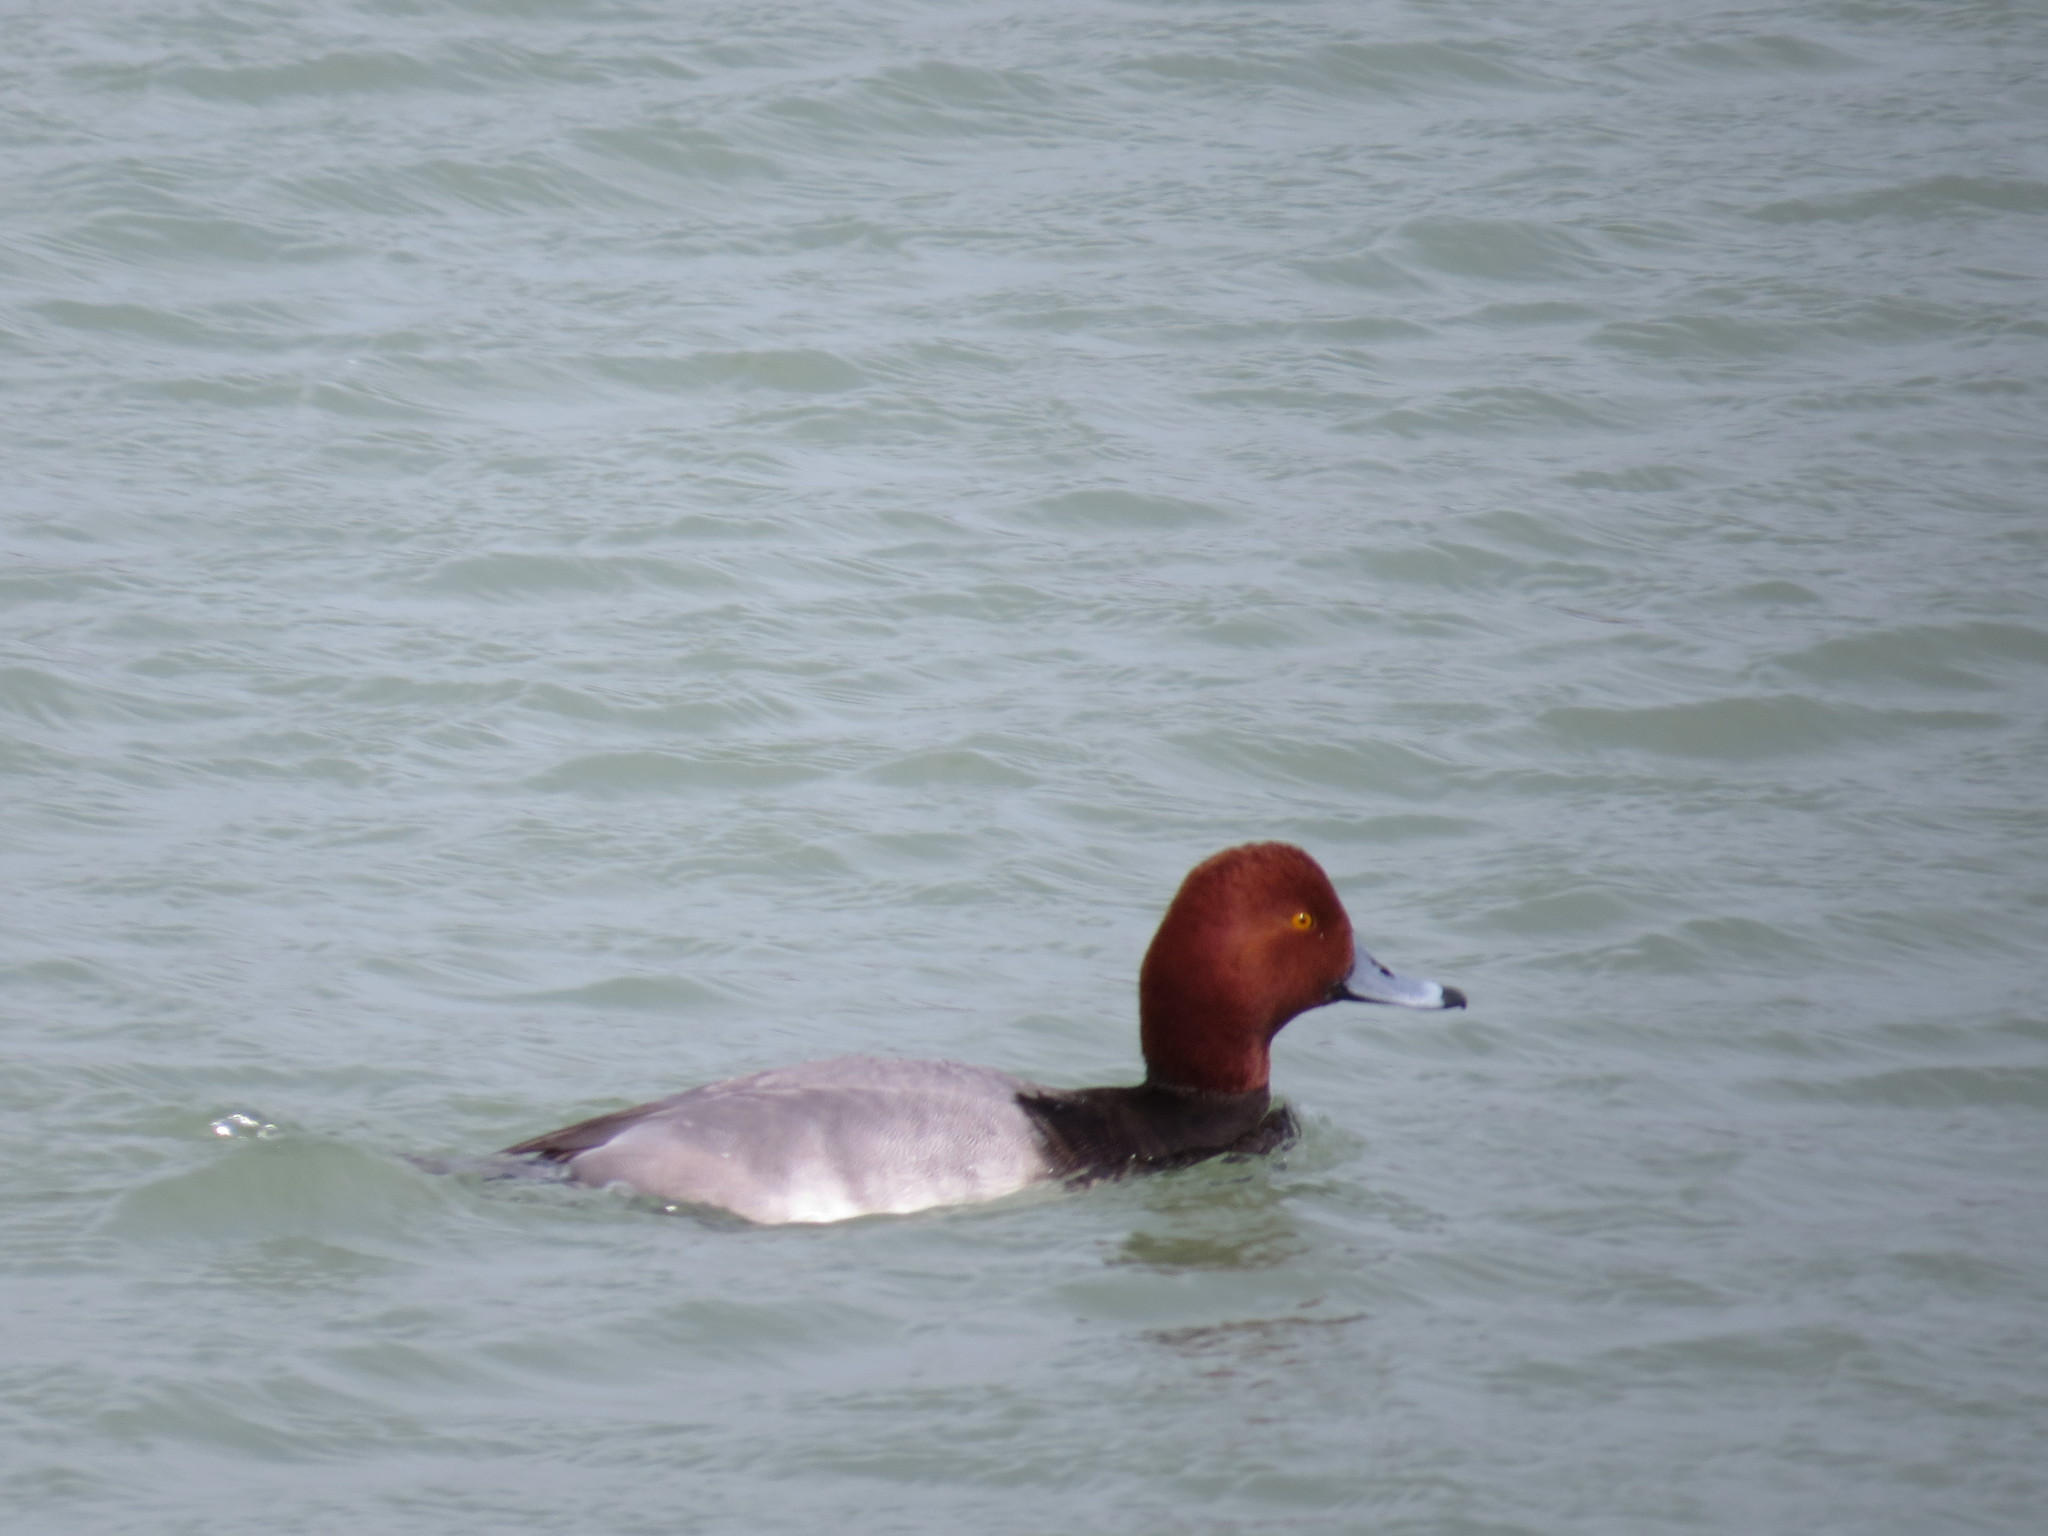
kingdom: Animalia
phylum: Chordata
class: Aves
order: Anseriformes
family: Anatidae
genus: Aythya
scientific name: Aythya americana
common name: Redhead
